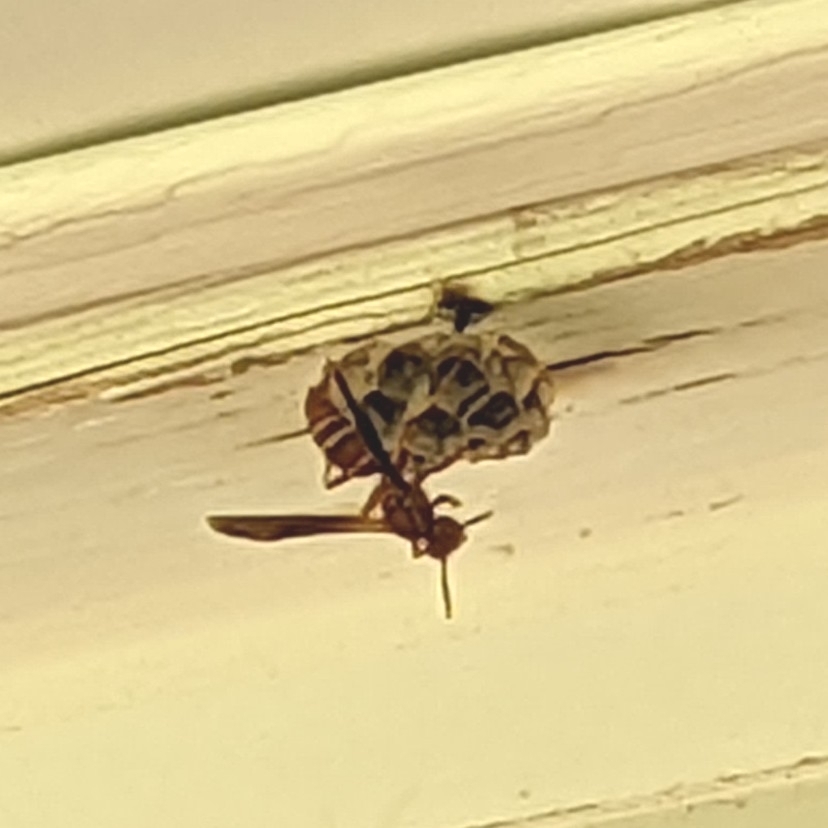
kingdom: Animalia
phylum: Arthropoda
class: Insecta
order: Hymenoptera
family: Vespidae
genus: Fuscopolistes
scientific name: Fuscopolistes
